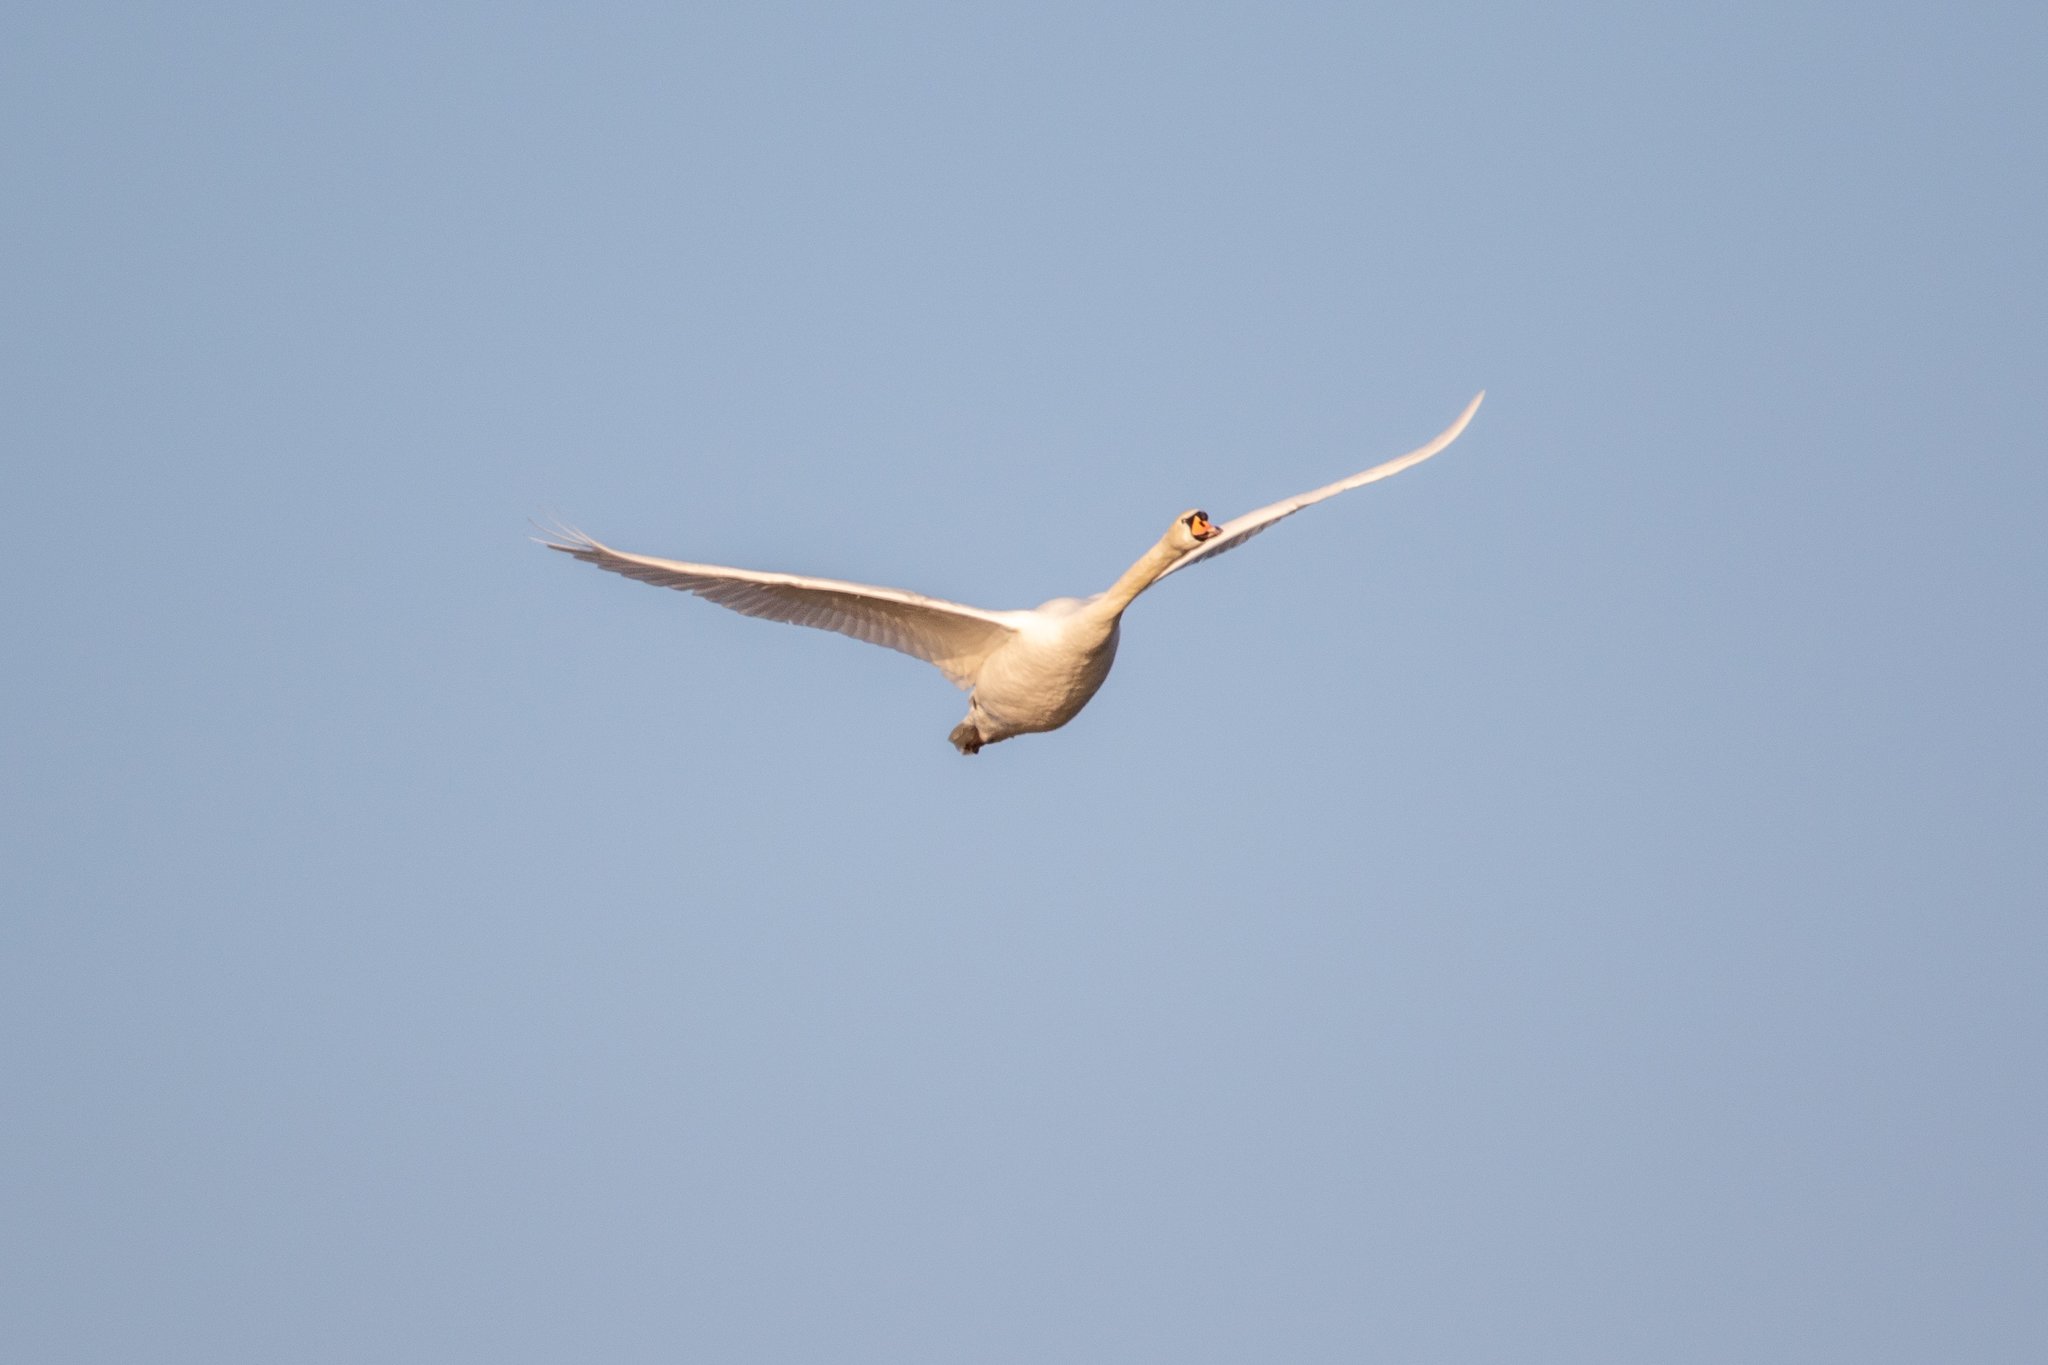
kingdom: Animalia
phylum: Chordata
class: Aves
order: Anseriformes
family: Anatidae
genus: Cygnus
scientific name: Cygnus olor
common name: Mute swan
